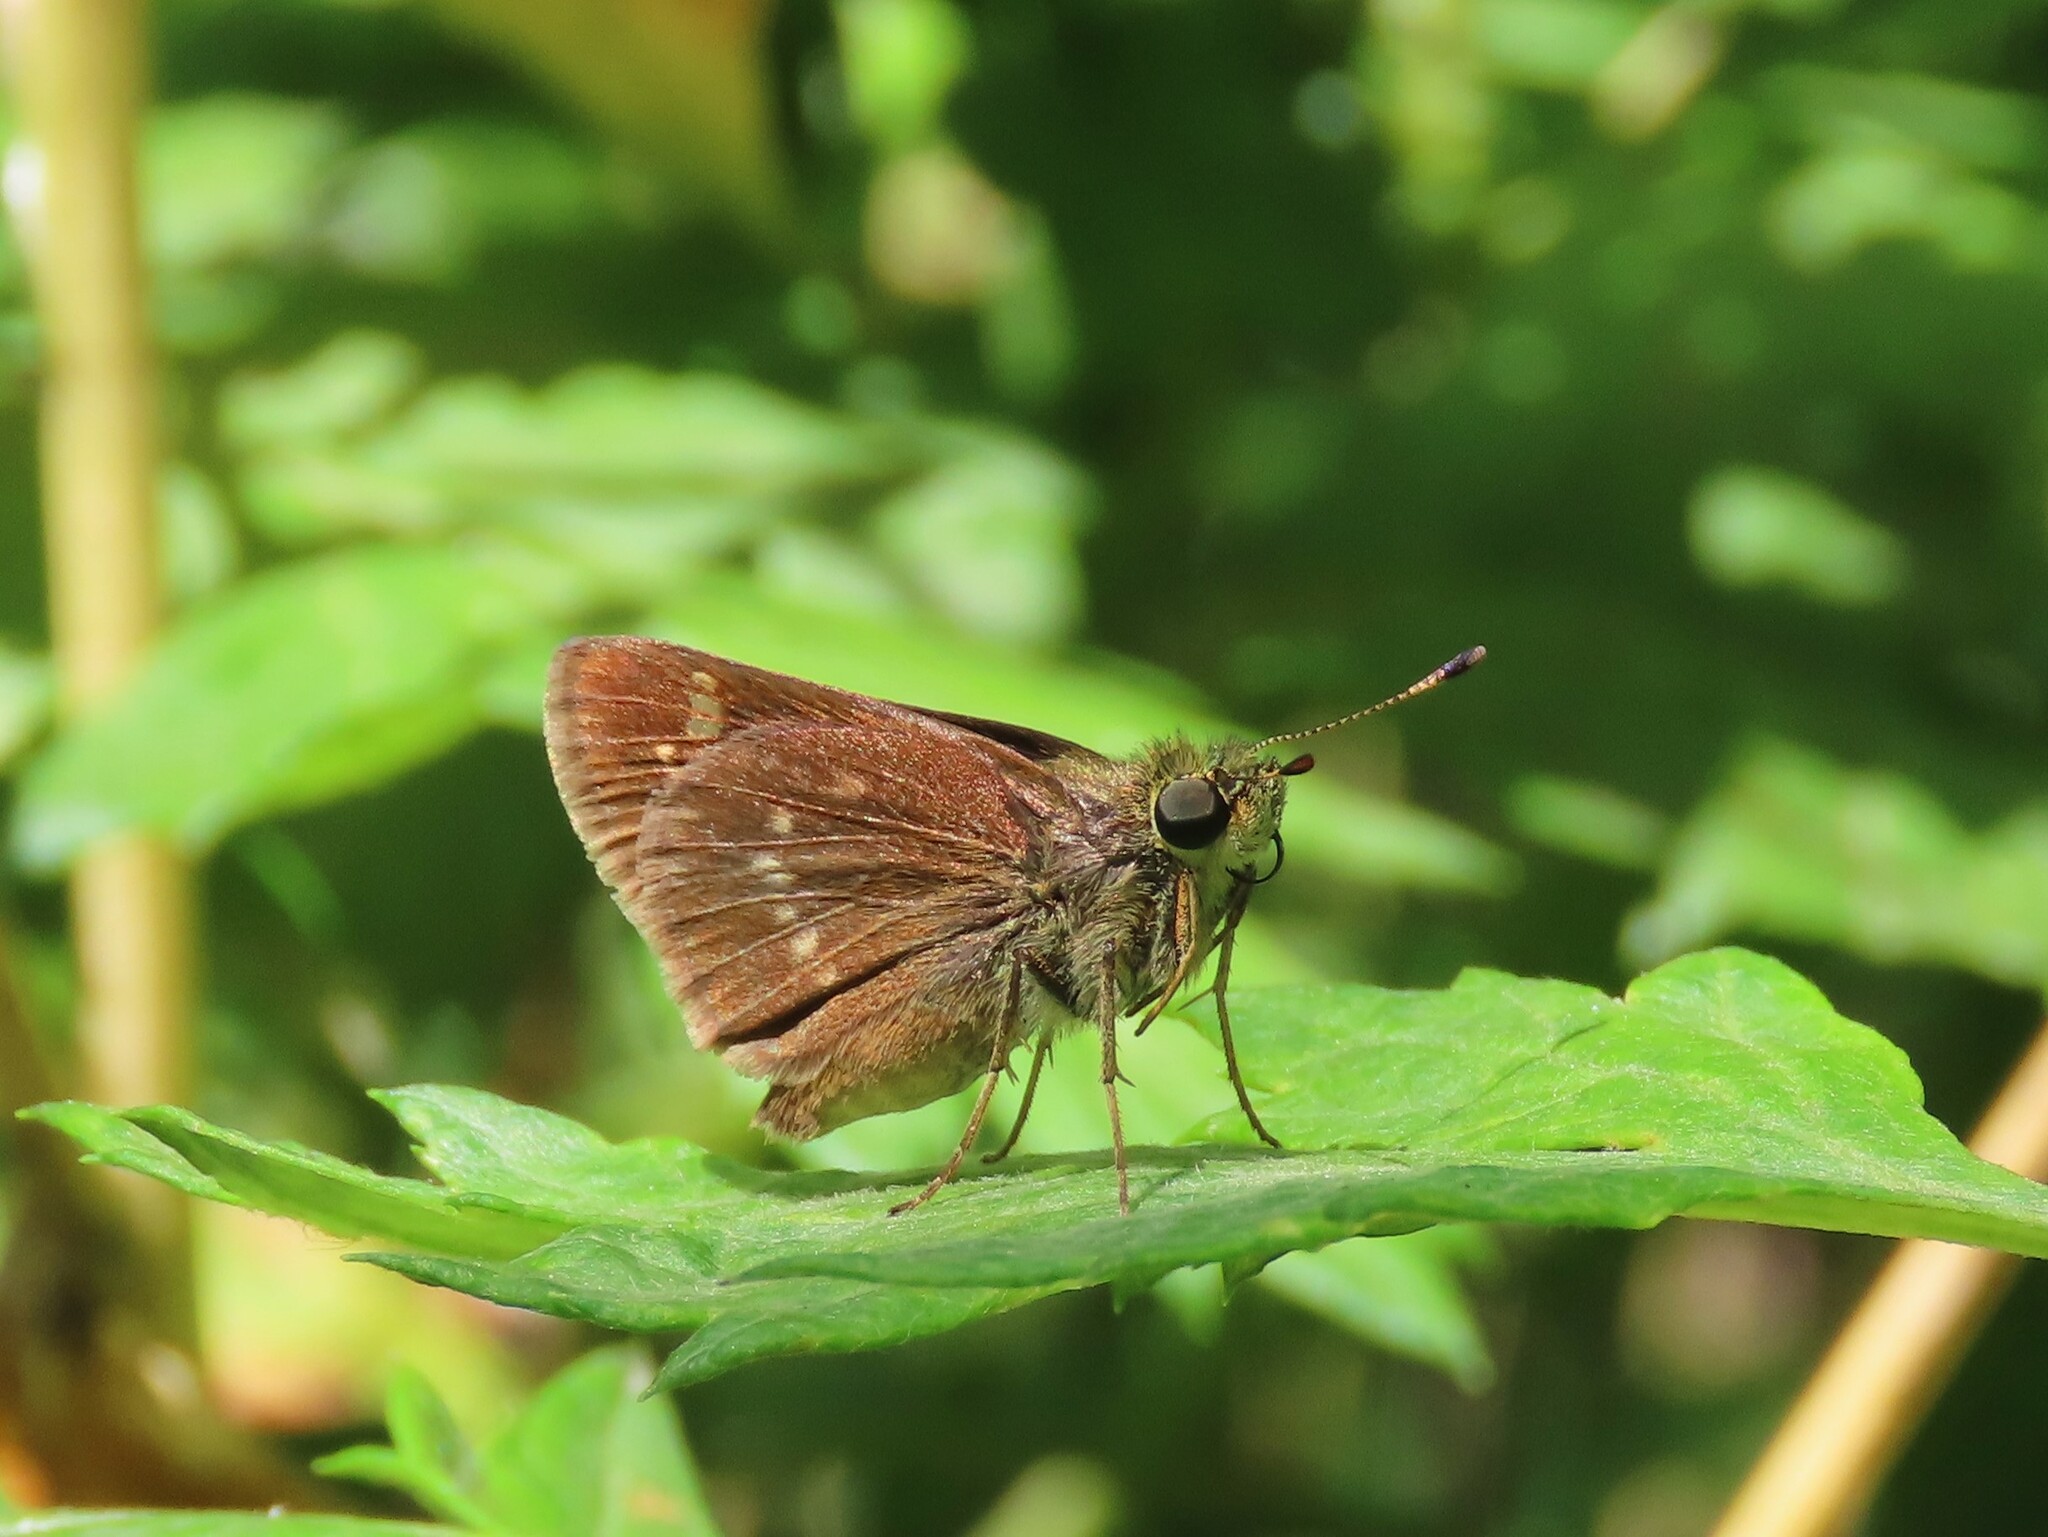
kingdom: Animalia
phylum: Arthropoda
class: Insecta
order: Lepidoptera
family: Hesperiidae
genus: Vernia
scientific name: Vernia verna
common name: Little glassywing
